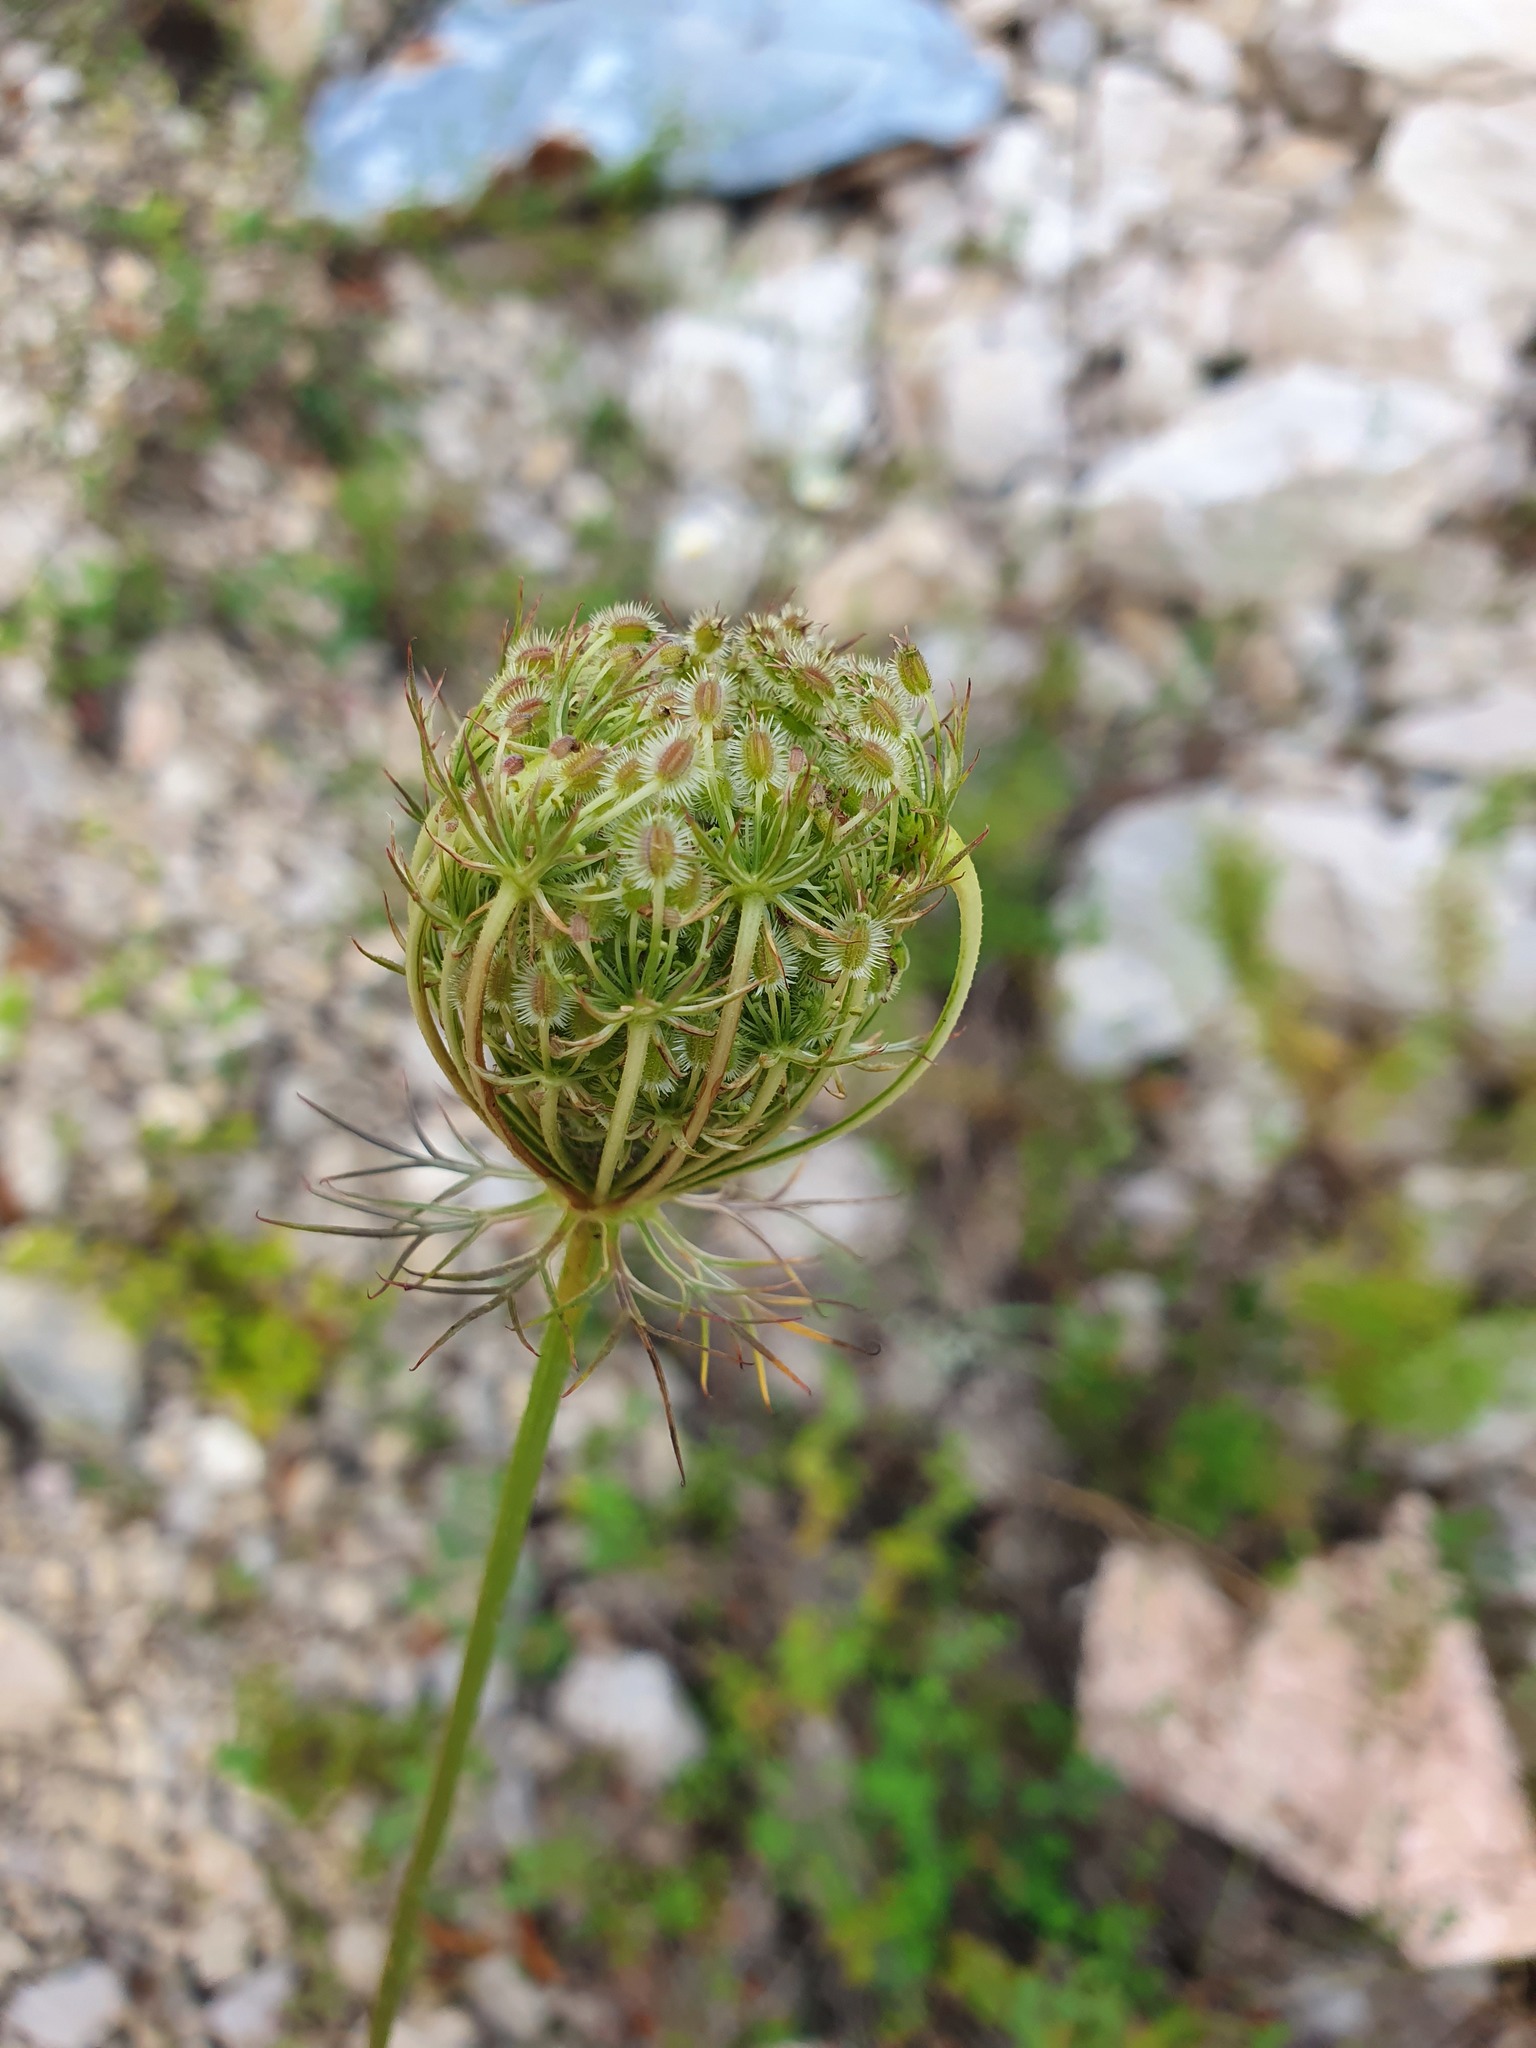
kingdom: Plantae
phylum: Tracheophyta
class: Magnoliopsida
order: Apiales
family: Apiaceae
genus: Daucus
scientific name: Daucus carota
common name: Wild carrot
